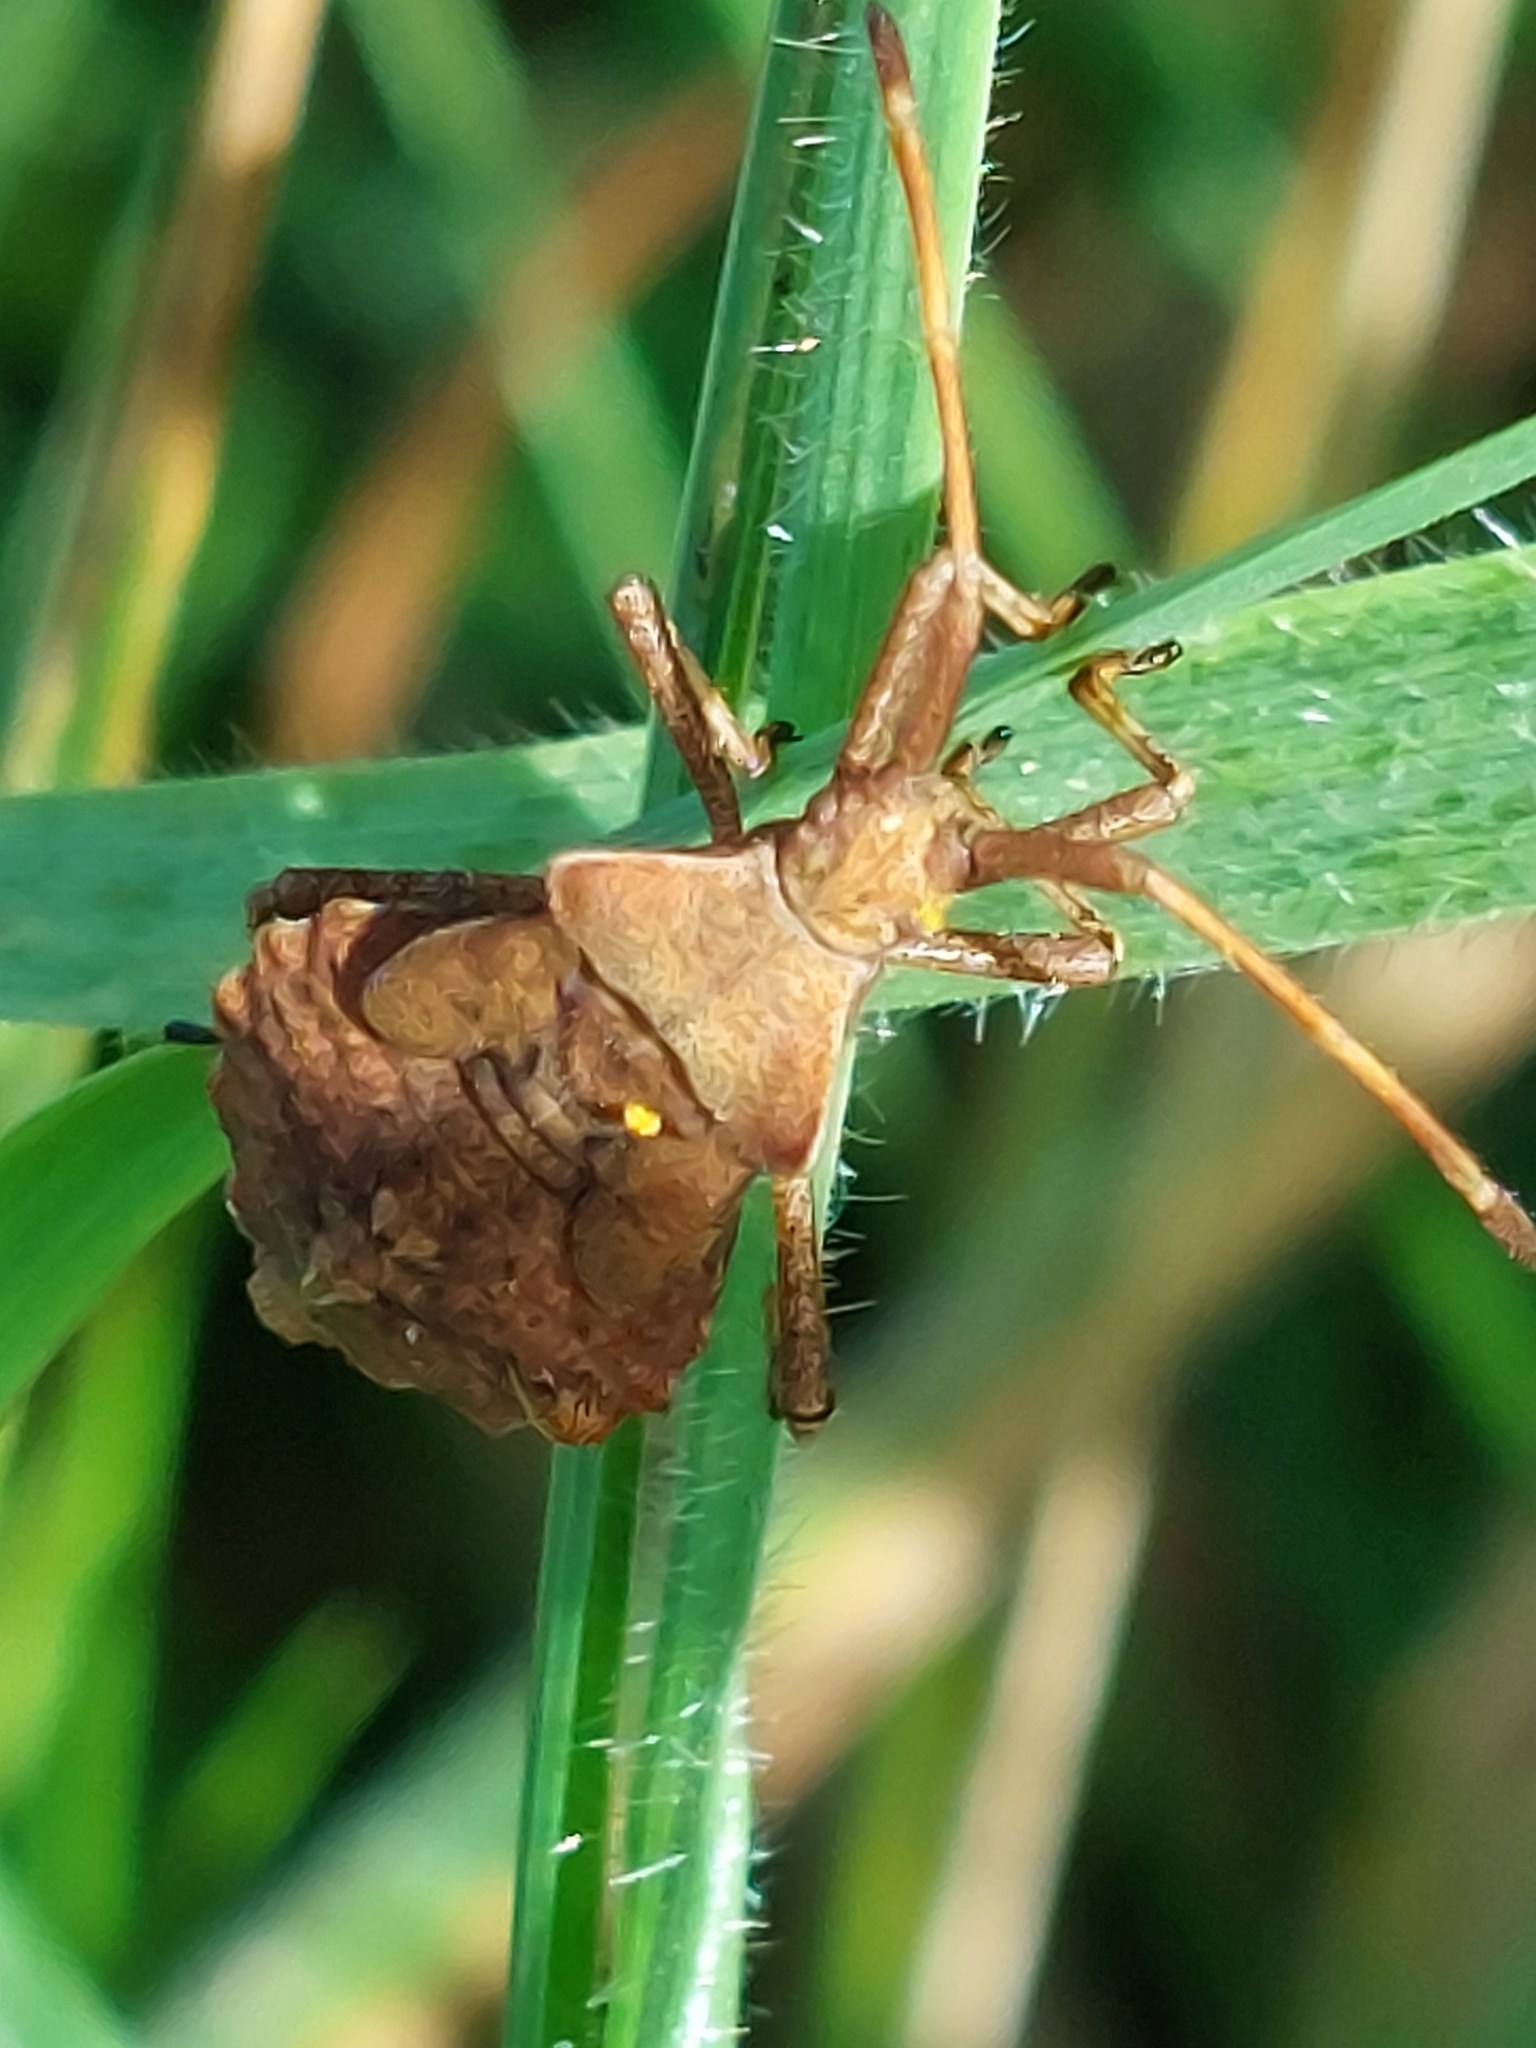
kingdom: Animalia
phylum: Arthropoda
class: Insecta
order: Hemiptera
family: Coreidae
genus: Coreus
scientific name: Coreus marginatus
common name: Dock bug
